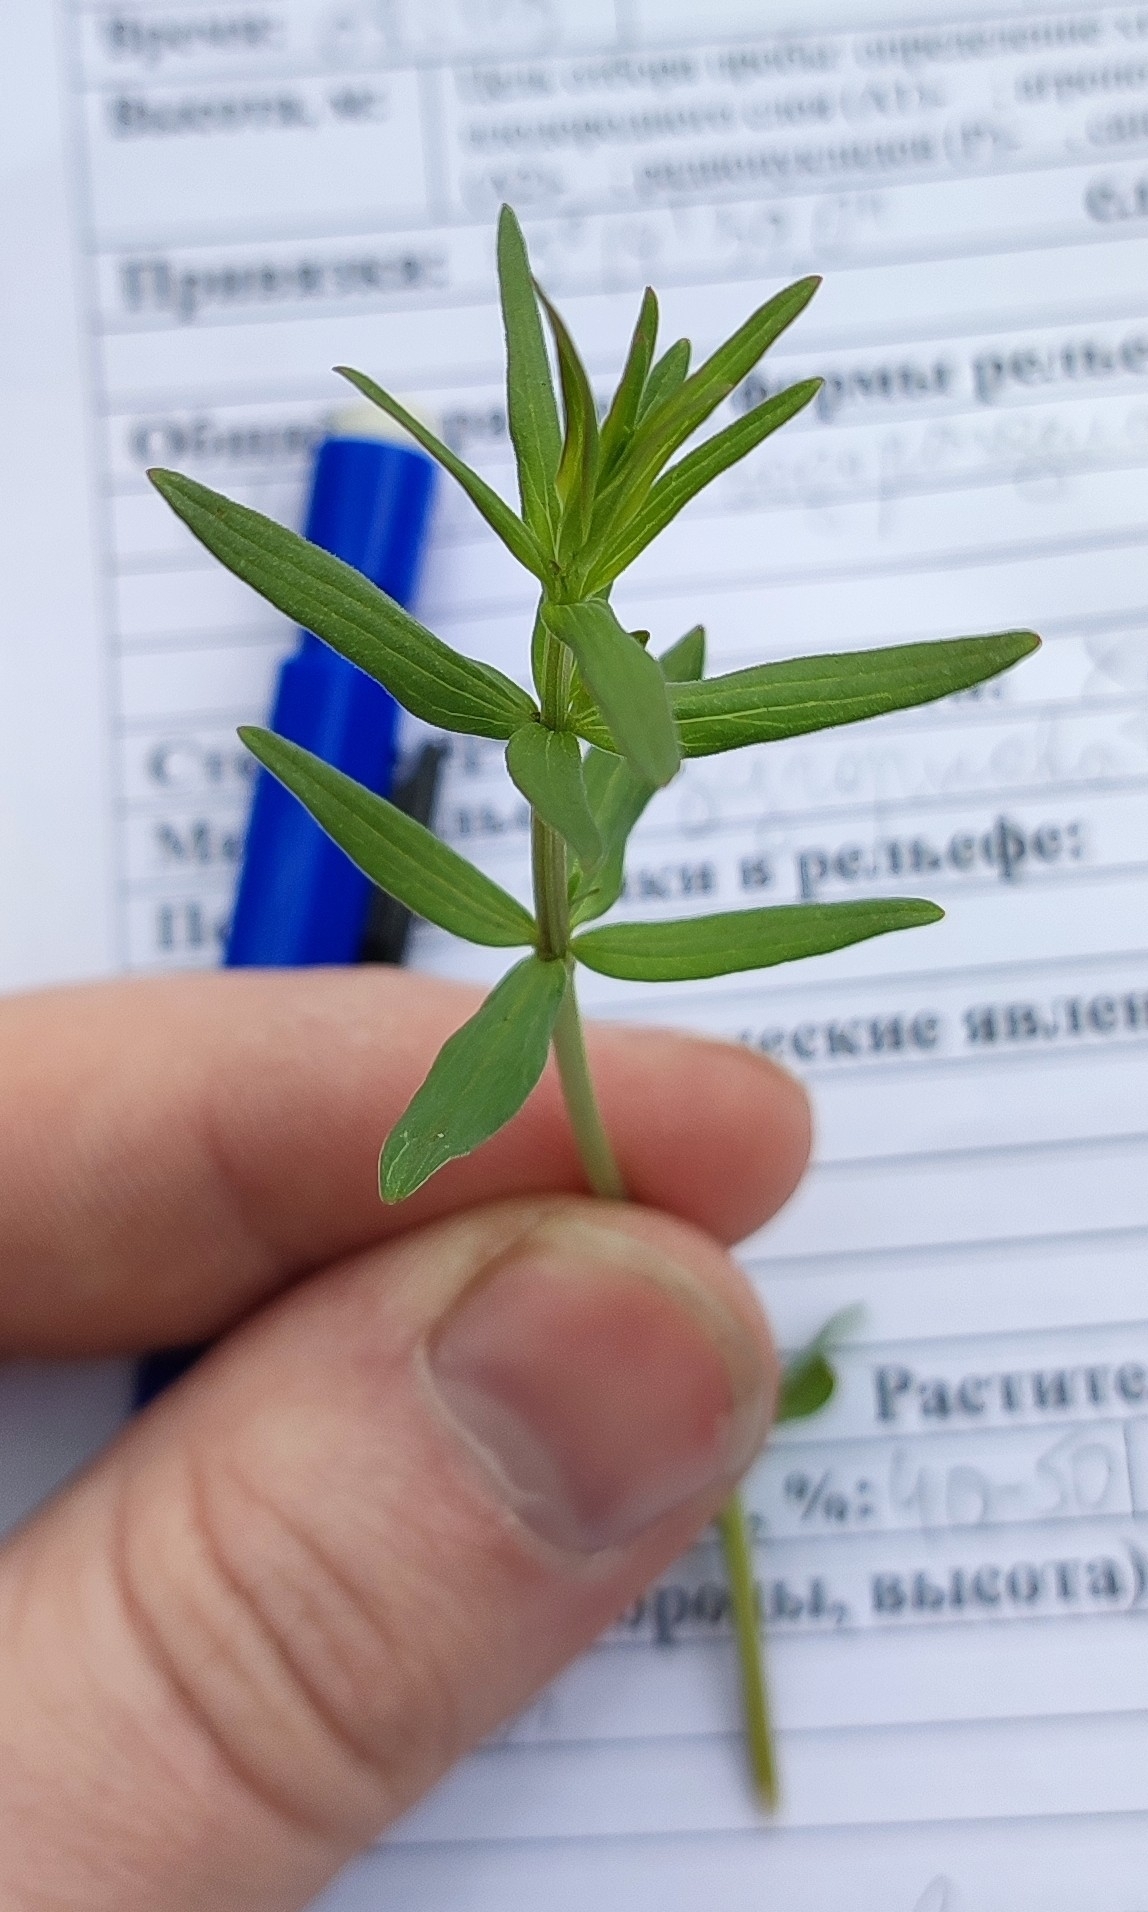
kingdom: Plantae
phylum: Tracheophyta
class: Magnoliopsida
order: Gentianales
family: Rubiaceae
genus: Galium
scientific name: Galium boreale
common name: Northern bedstraw
